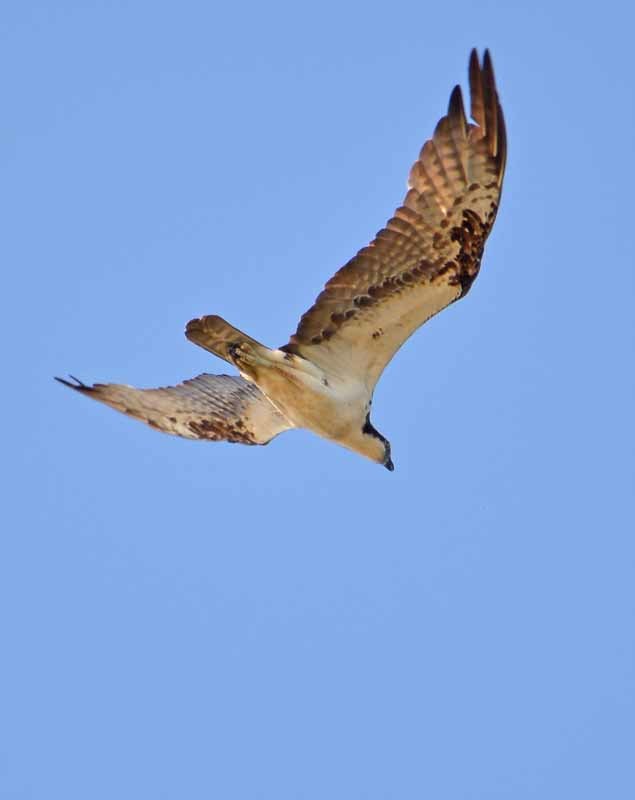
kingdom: Animalia
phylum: Chordata
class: Aves
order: Accipitriformes
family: Pandionidae
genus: Pandion
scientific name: Pandion haliaetus
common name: Osprey
